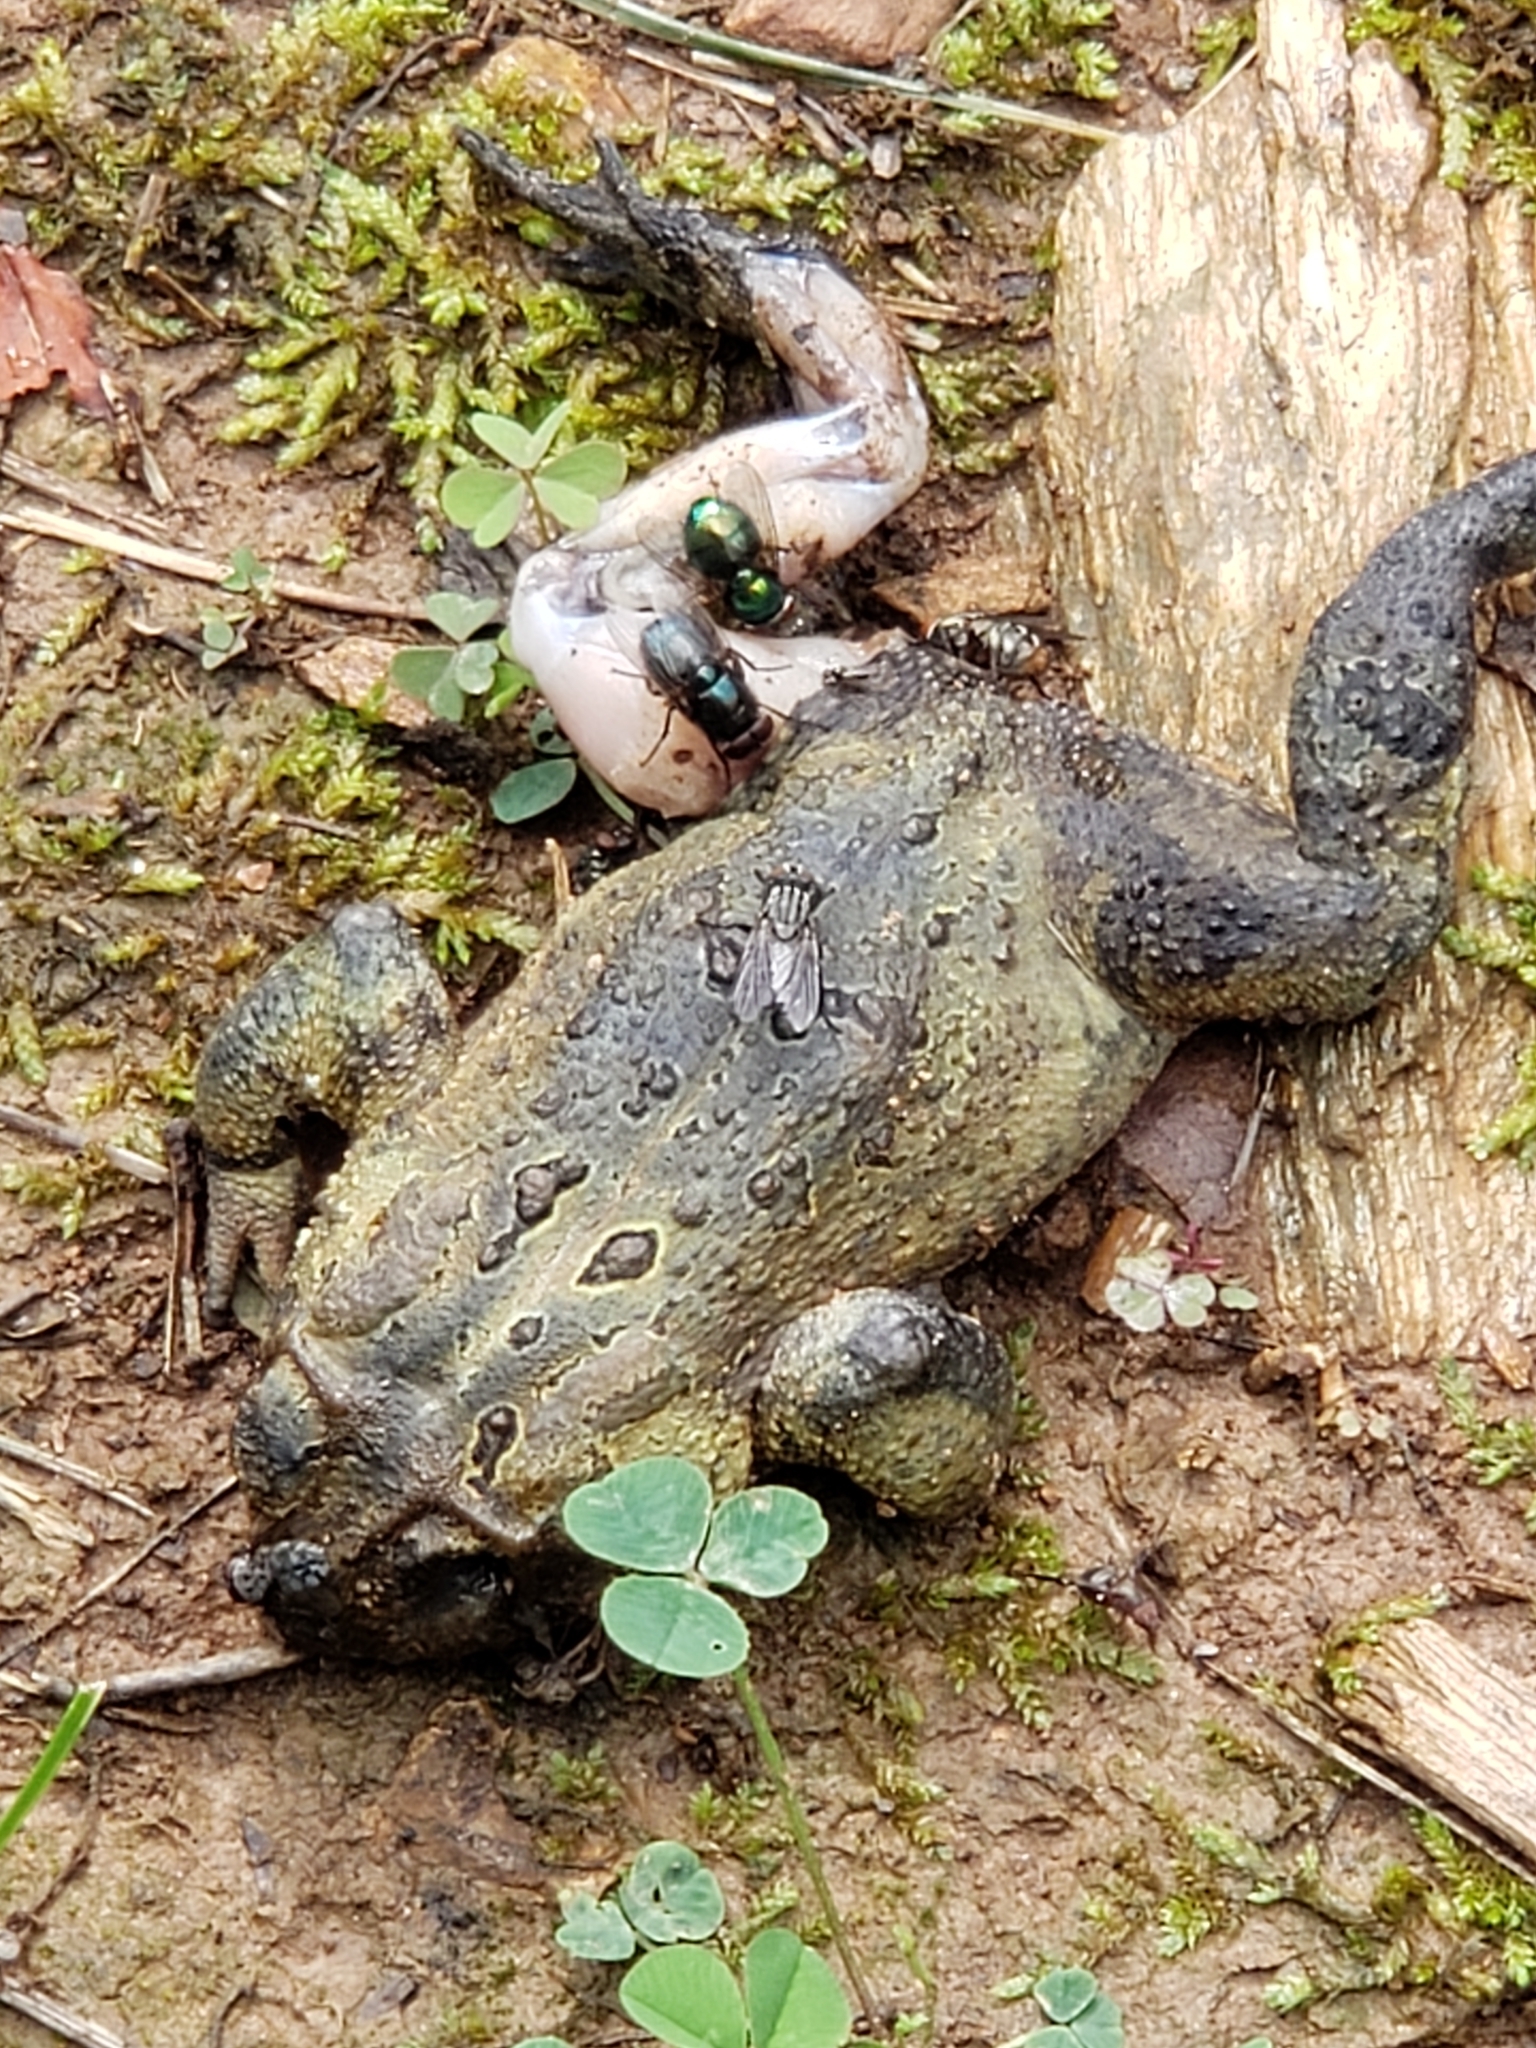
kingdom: Animalia
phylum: Chordata
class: Amphibia
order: Anura
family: Bufonidae
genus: Anaxyrus
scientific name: Anaxyrus americanus
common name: American toad
